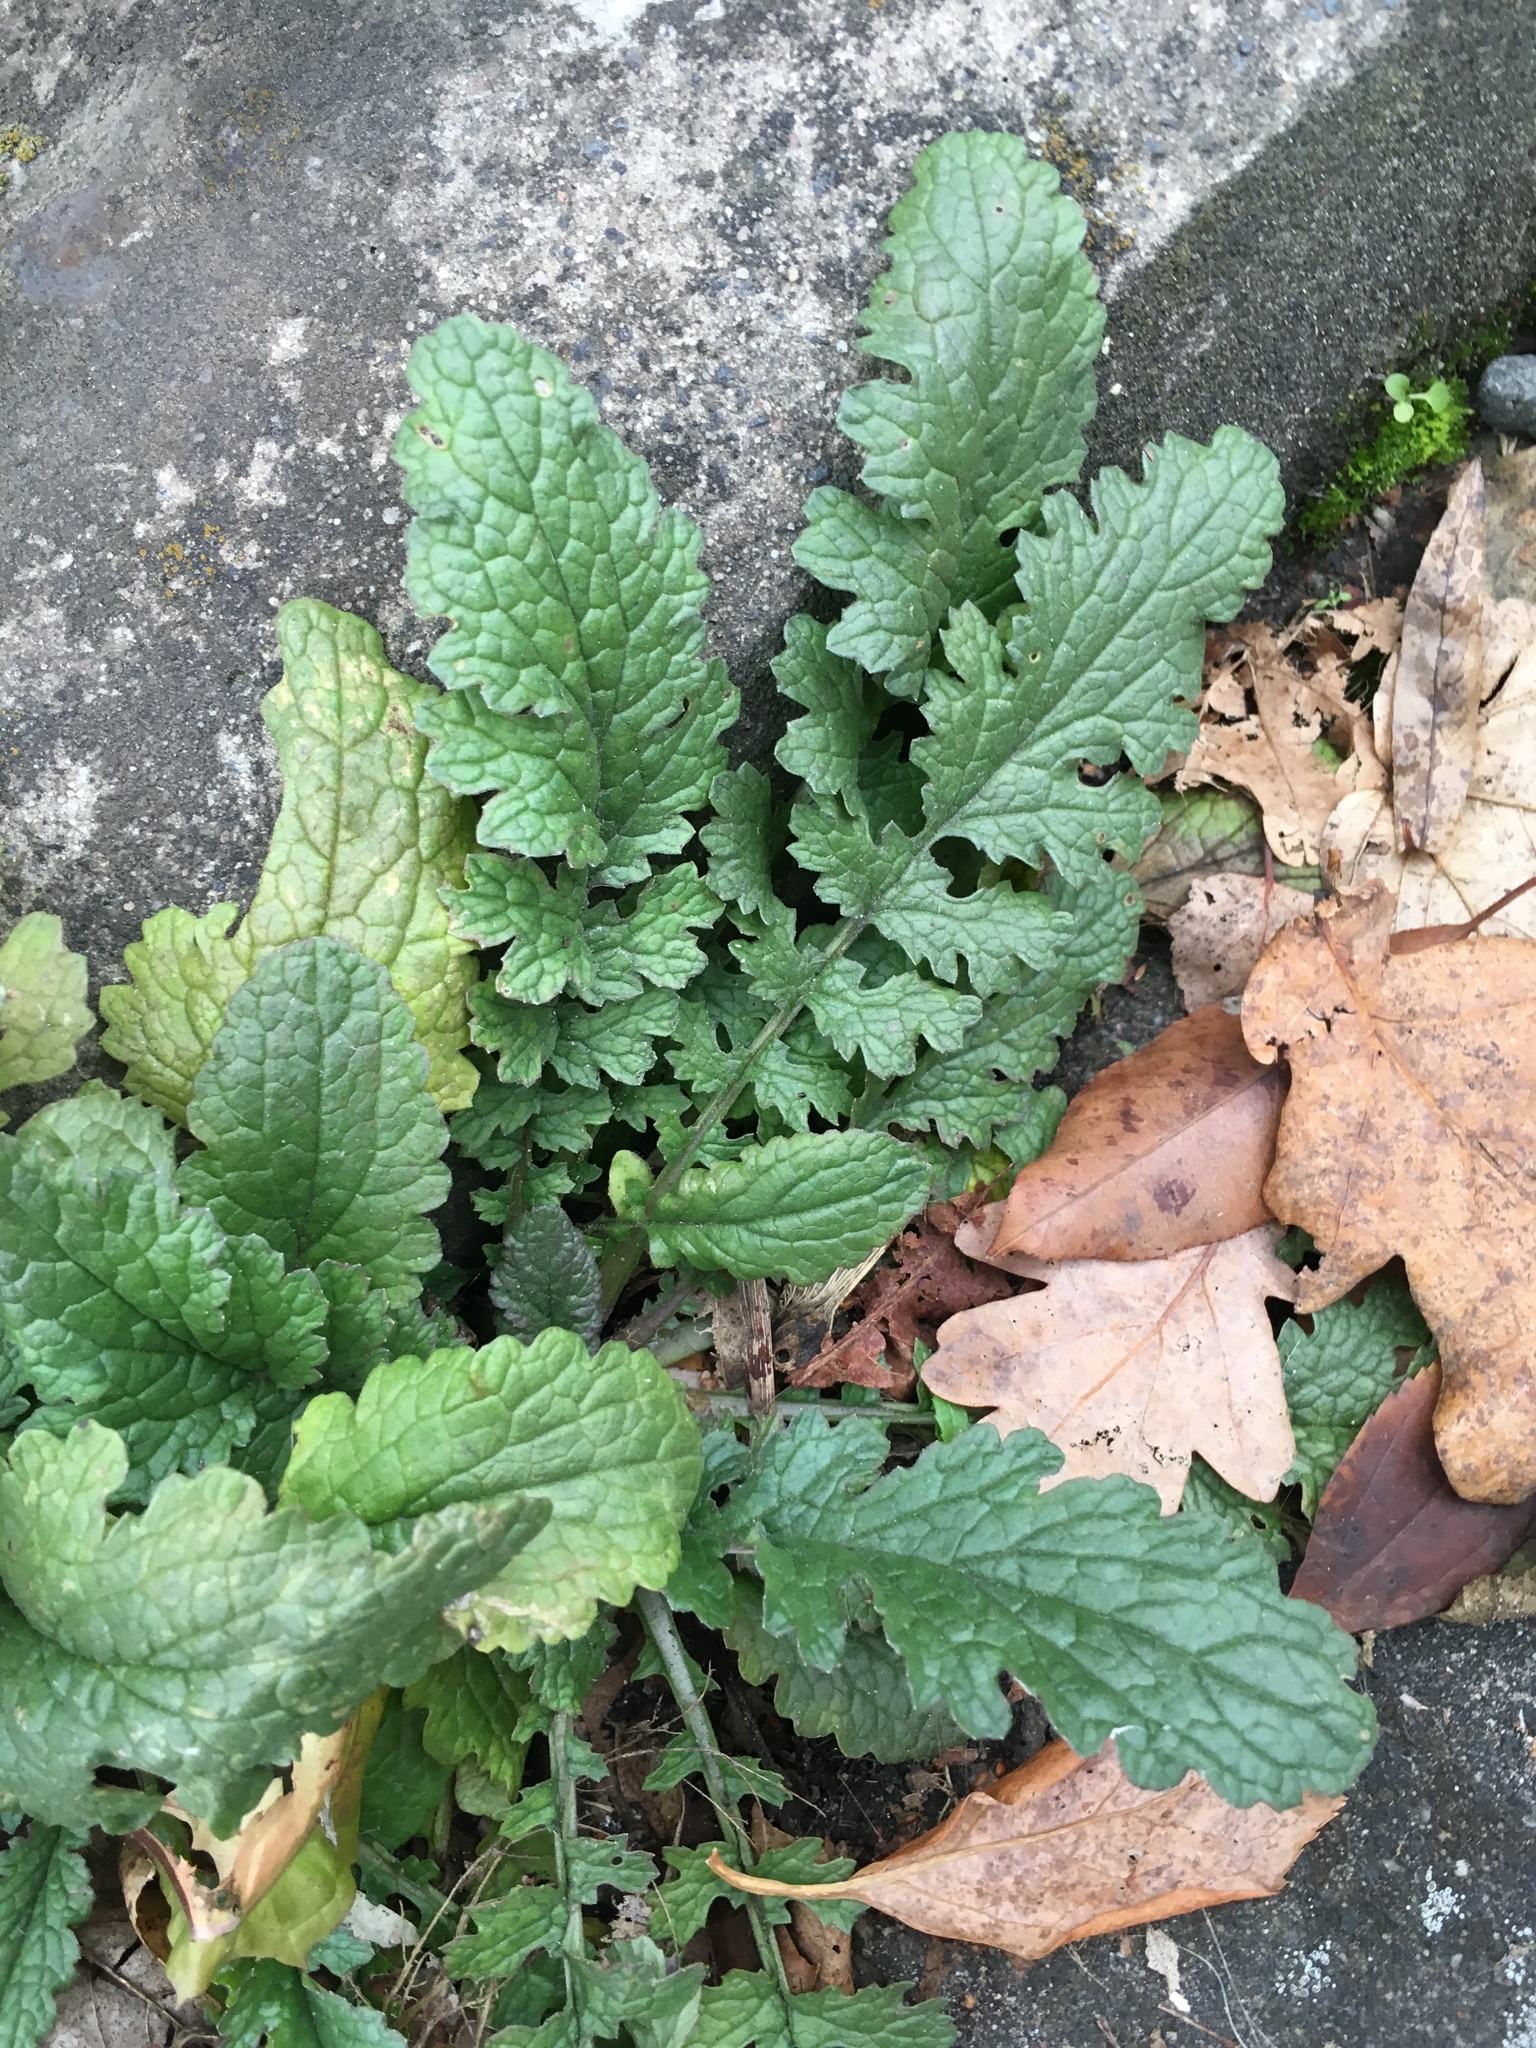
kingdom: Plantae
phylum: Tracheophyta
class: Magnoliopsida
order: Asterales
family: Asteraceae
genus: Jacobaea
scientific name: Jacobaea vulgaris
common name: Stinking willie
